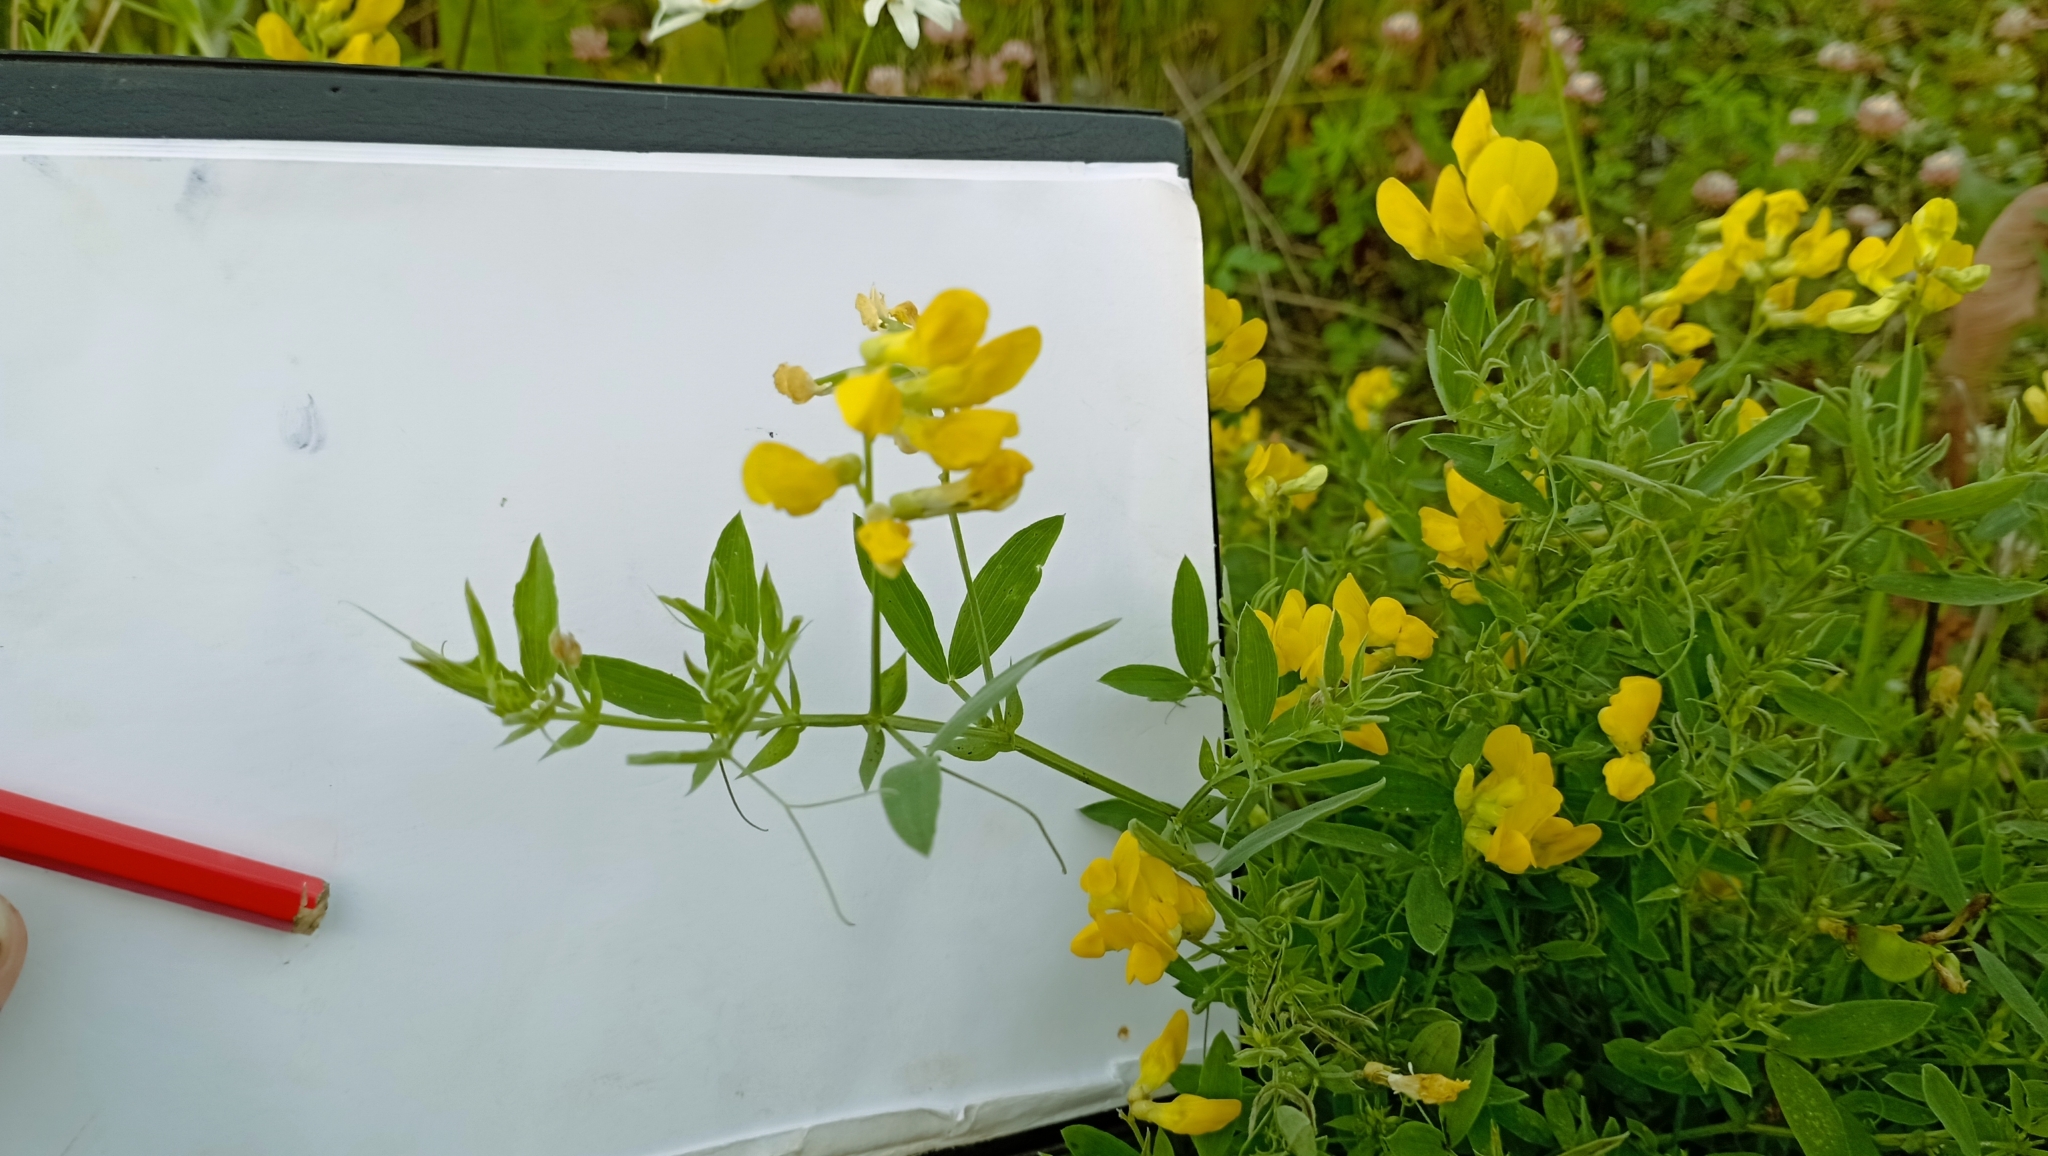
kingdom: Plantae
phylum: Tracheophyta
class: Magnoliopsida
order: Fabales
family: Fabaceae
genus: Lathyrus
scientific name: Lathyrus pratensis
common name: Meadow vetchling
